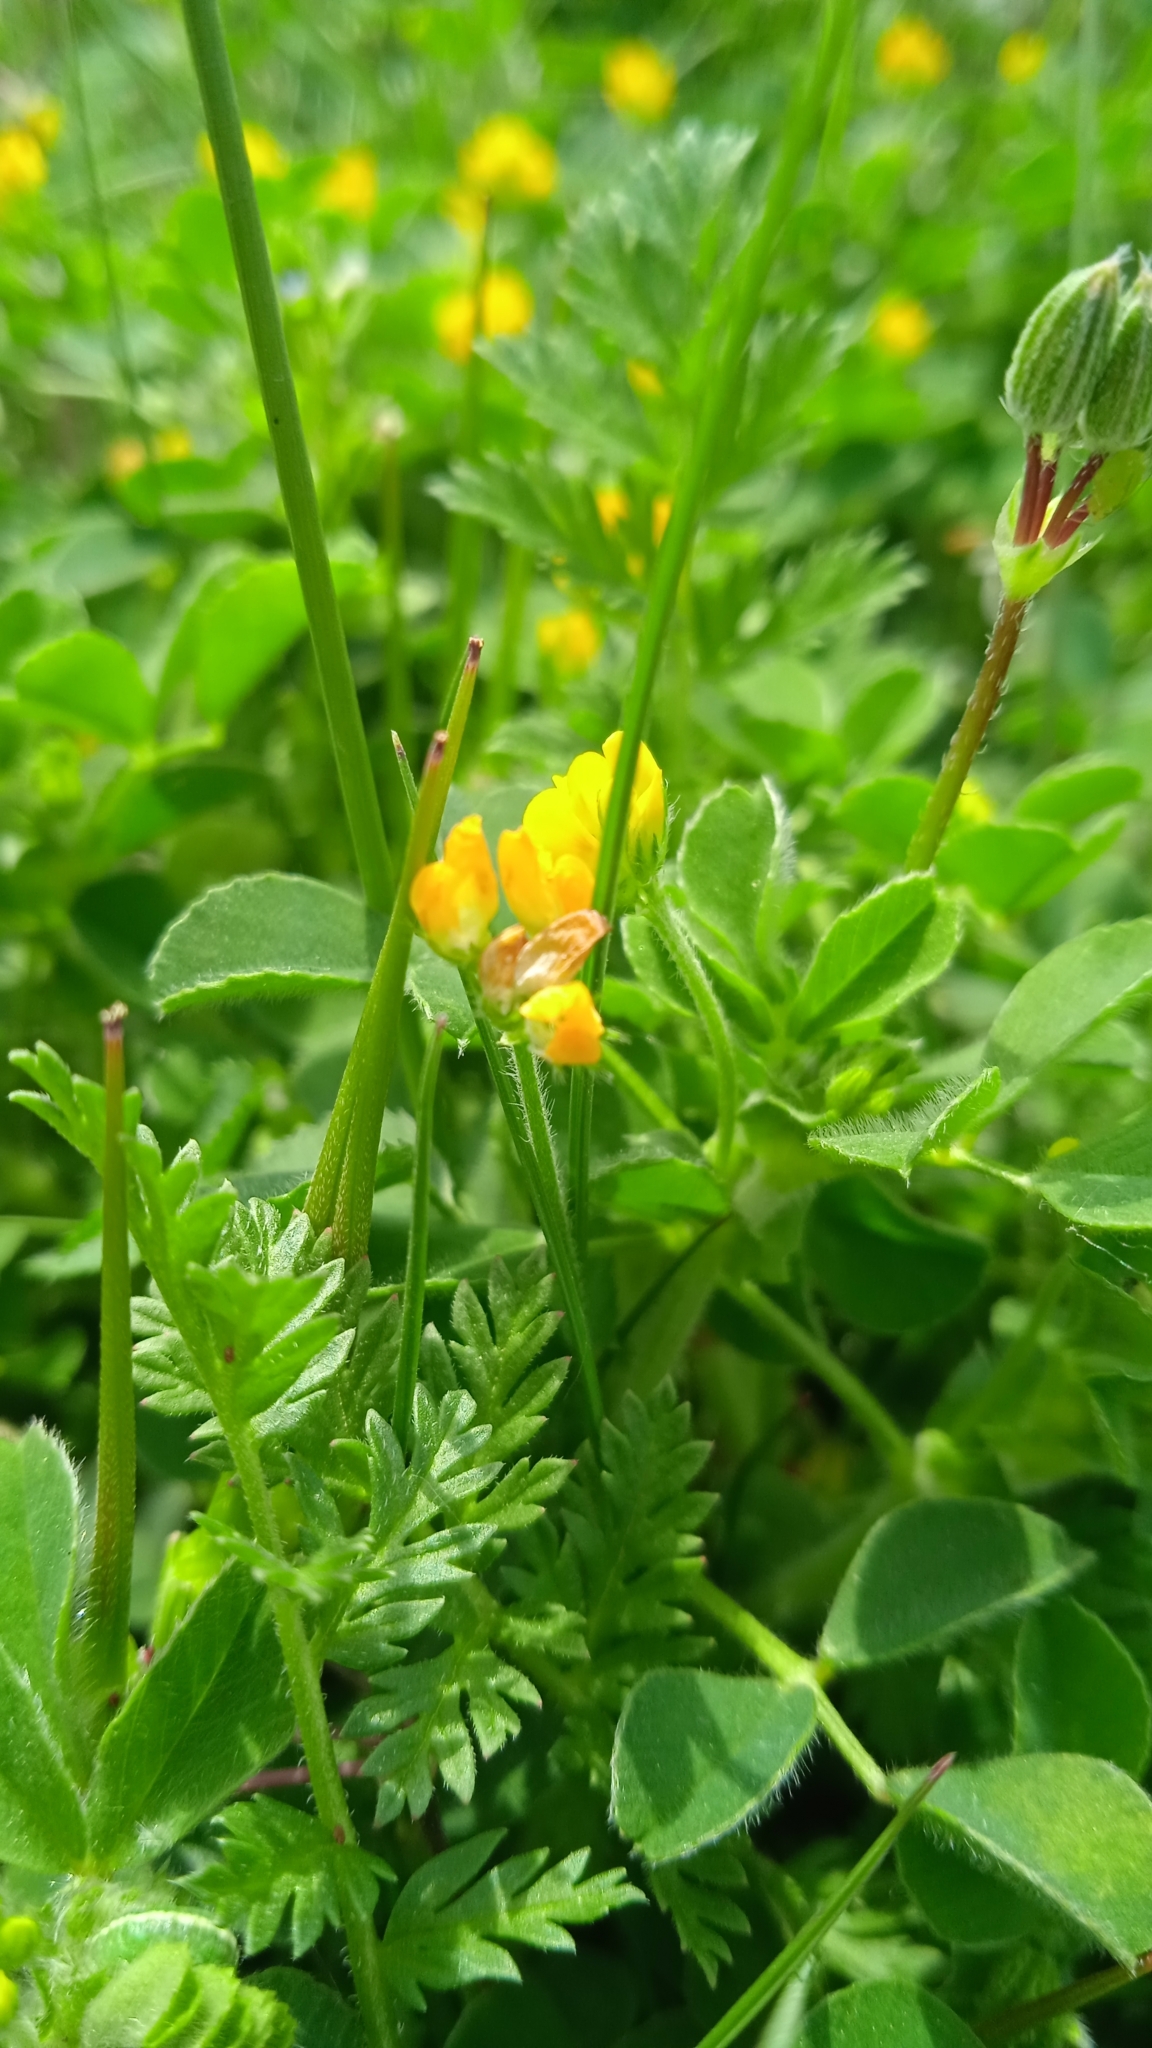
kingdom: Plantae
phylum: Tracheophyta
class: Magnoliopsida
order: Fabales
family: Fabaceae
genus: Medicago
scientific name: Medicago minima
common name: Little bur-clover
